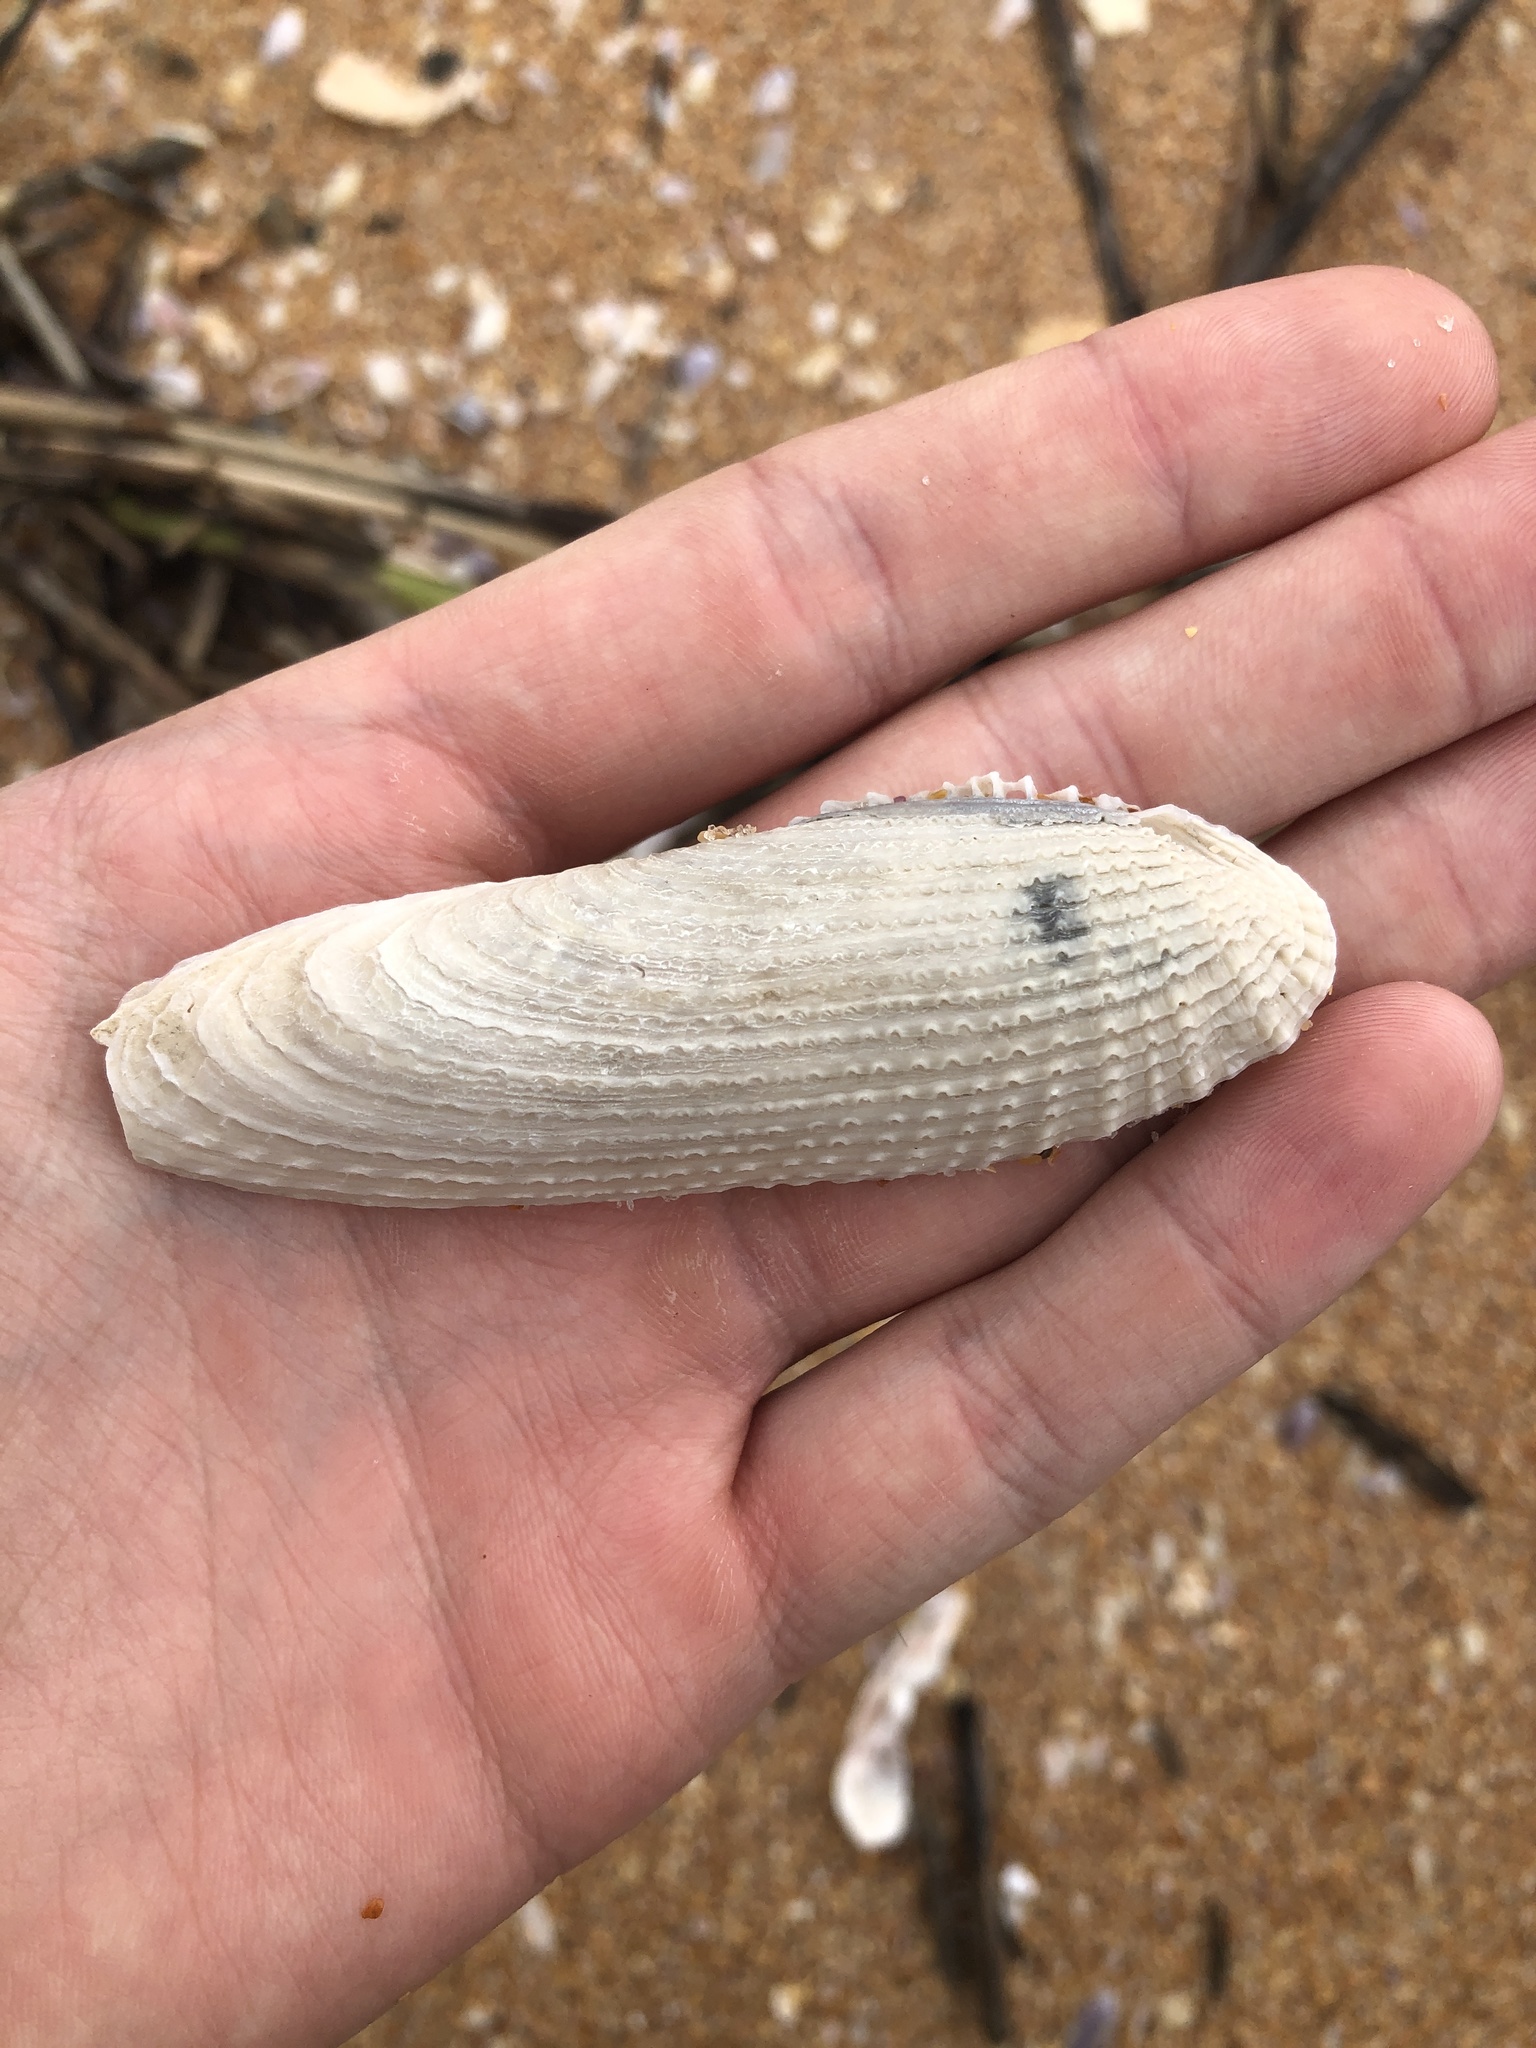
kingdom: Animalia
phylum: Mollusca
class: Bivalvia
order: Myida
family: Pholadidae
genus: Pholas
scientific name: Pholas campechiensis
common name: Campeche angel wing
